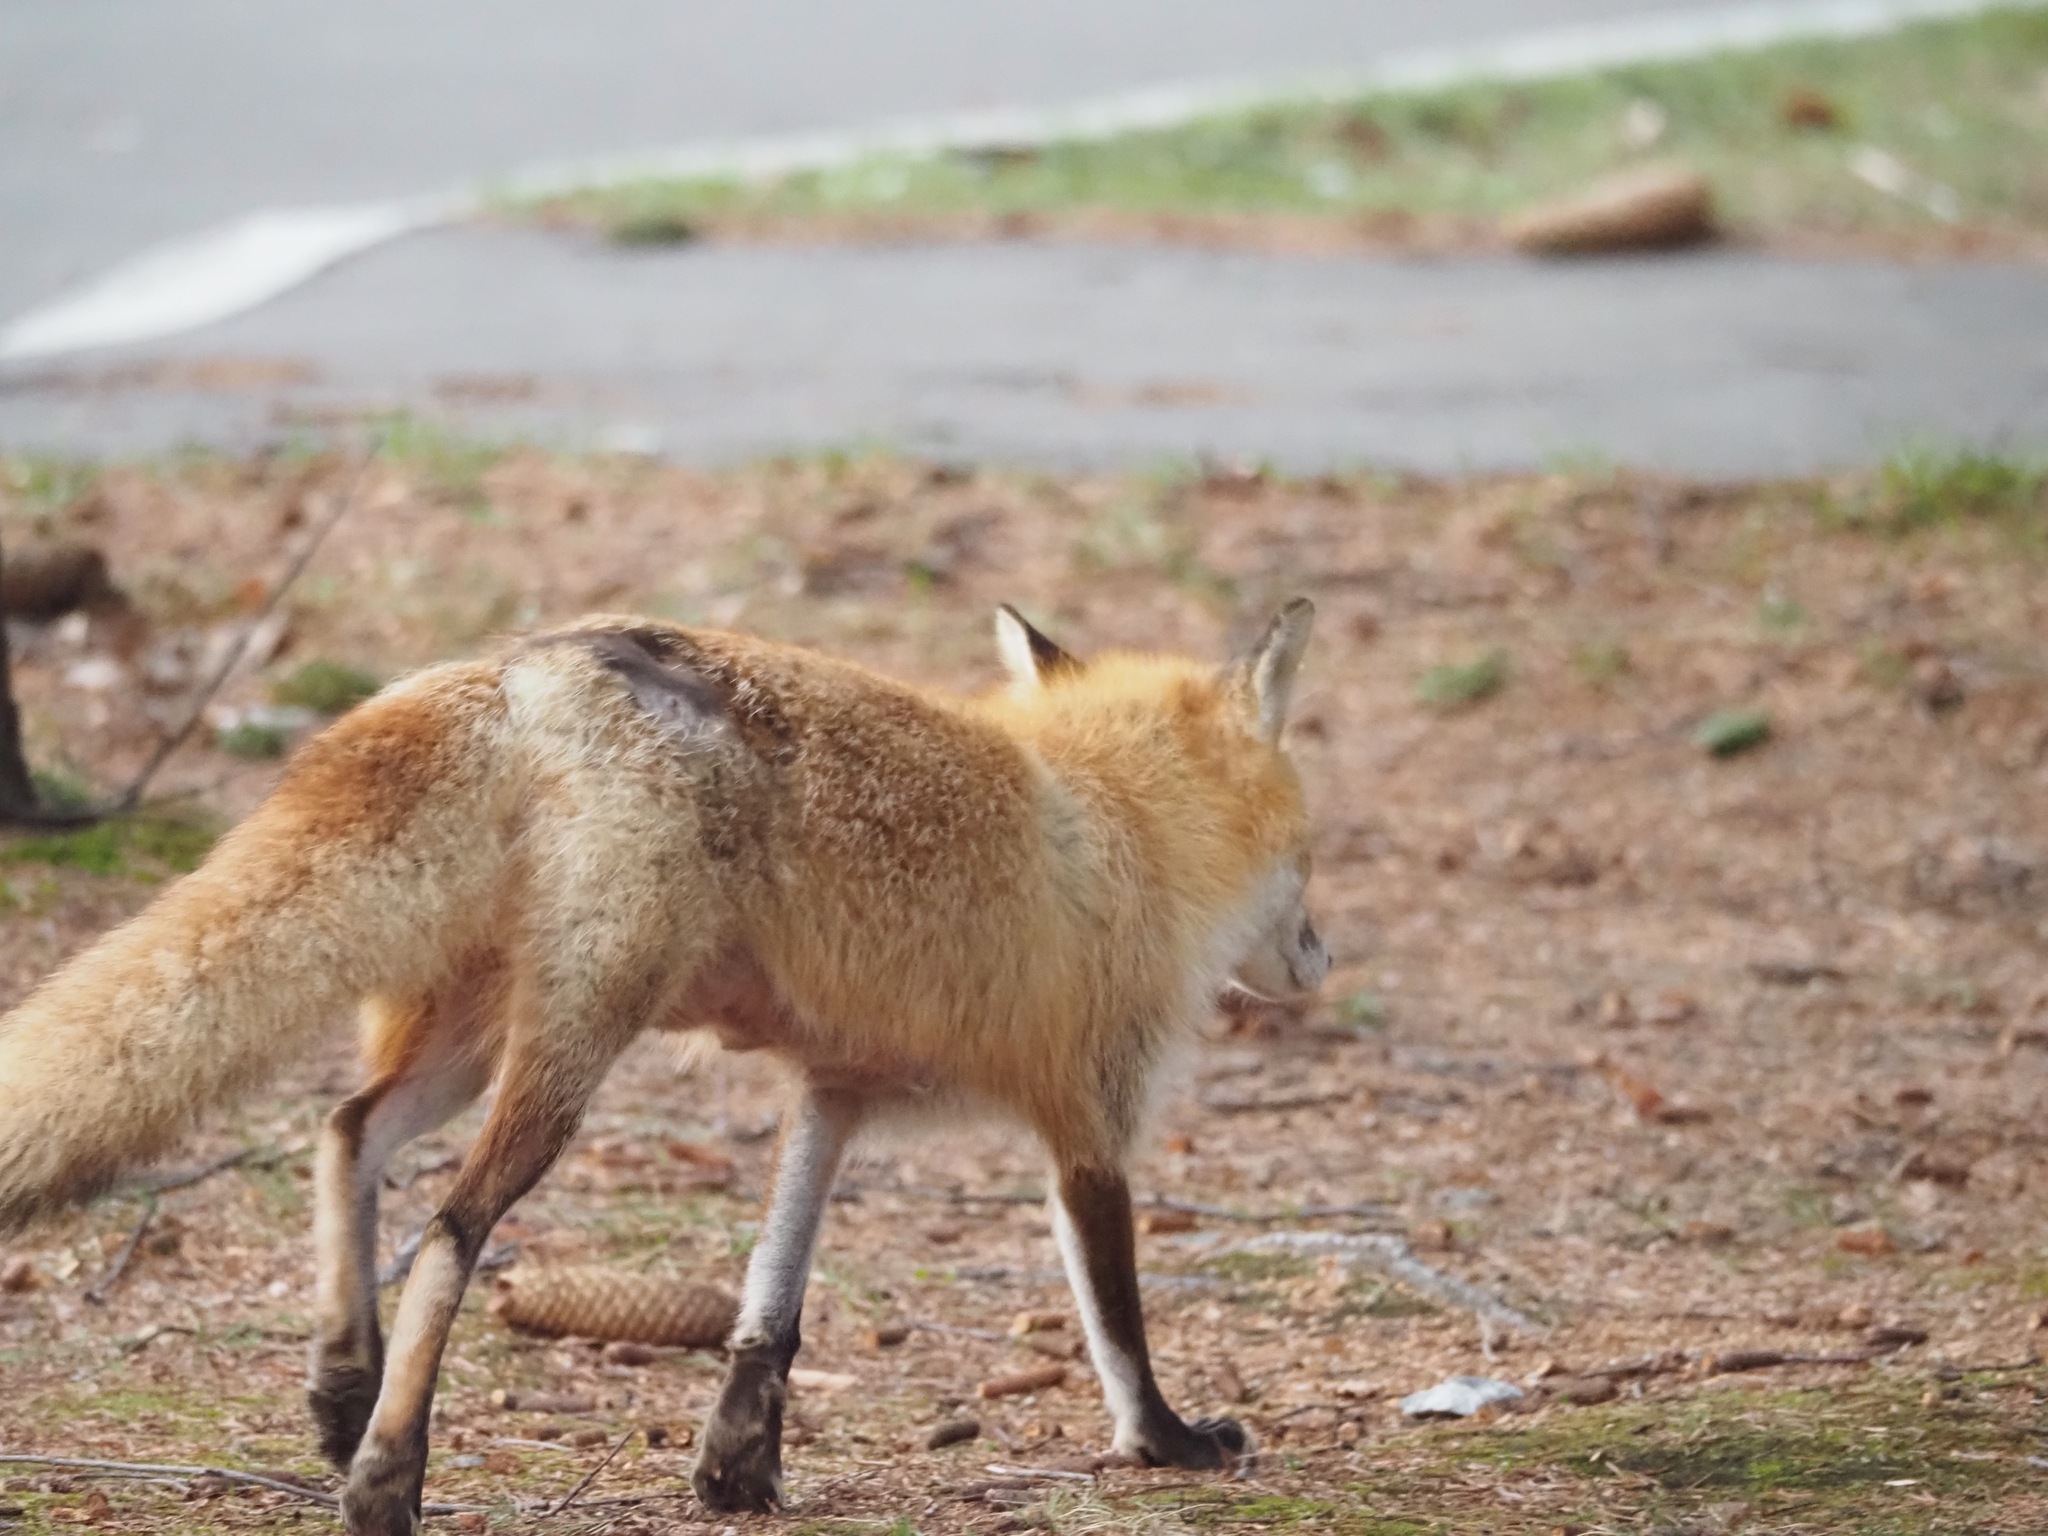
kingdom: Animalia
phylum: Chordata
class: Mammalia
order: Carnivora
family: Canidae
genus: Vulpes
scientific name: Vulpes vulpes
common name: Red fox
